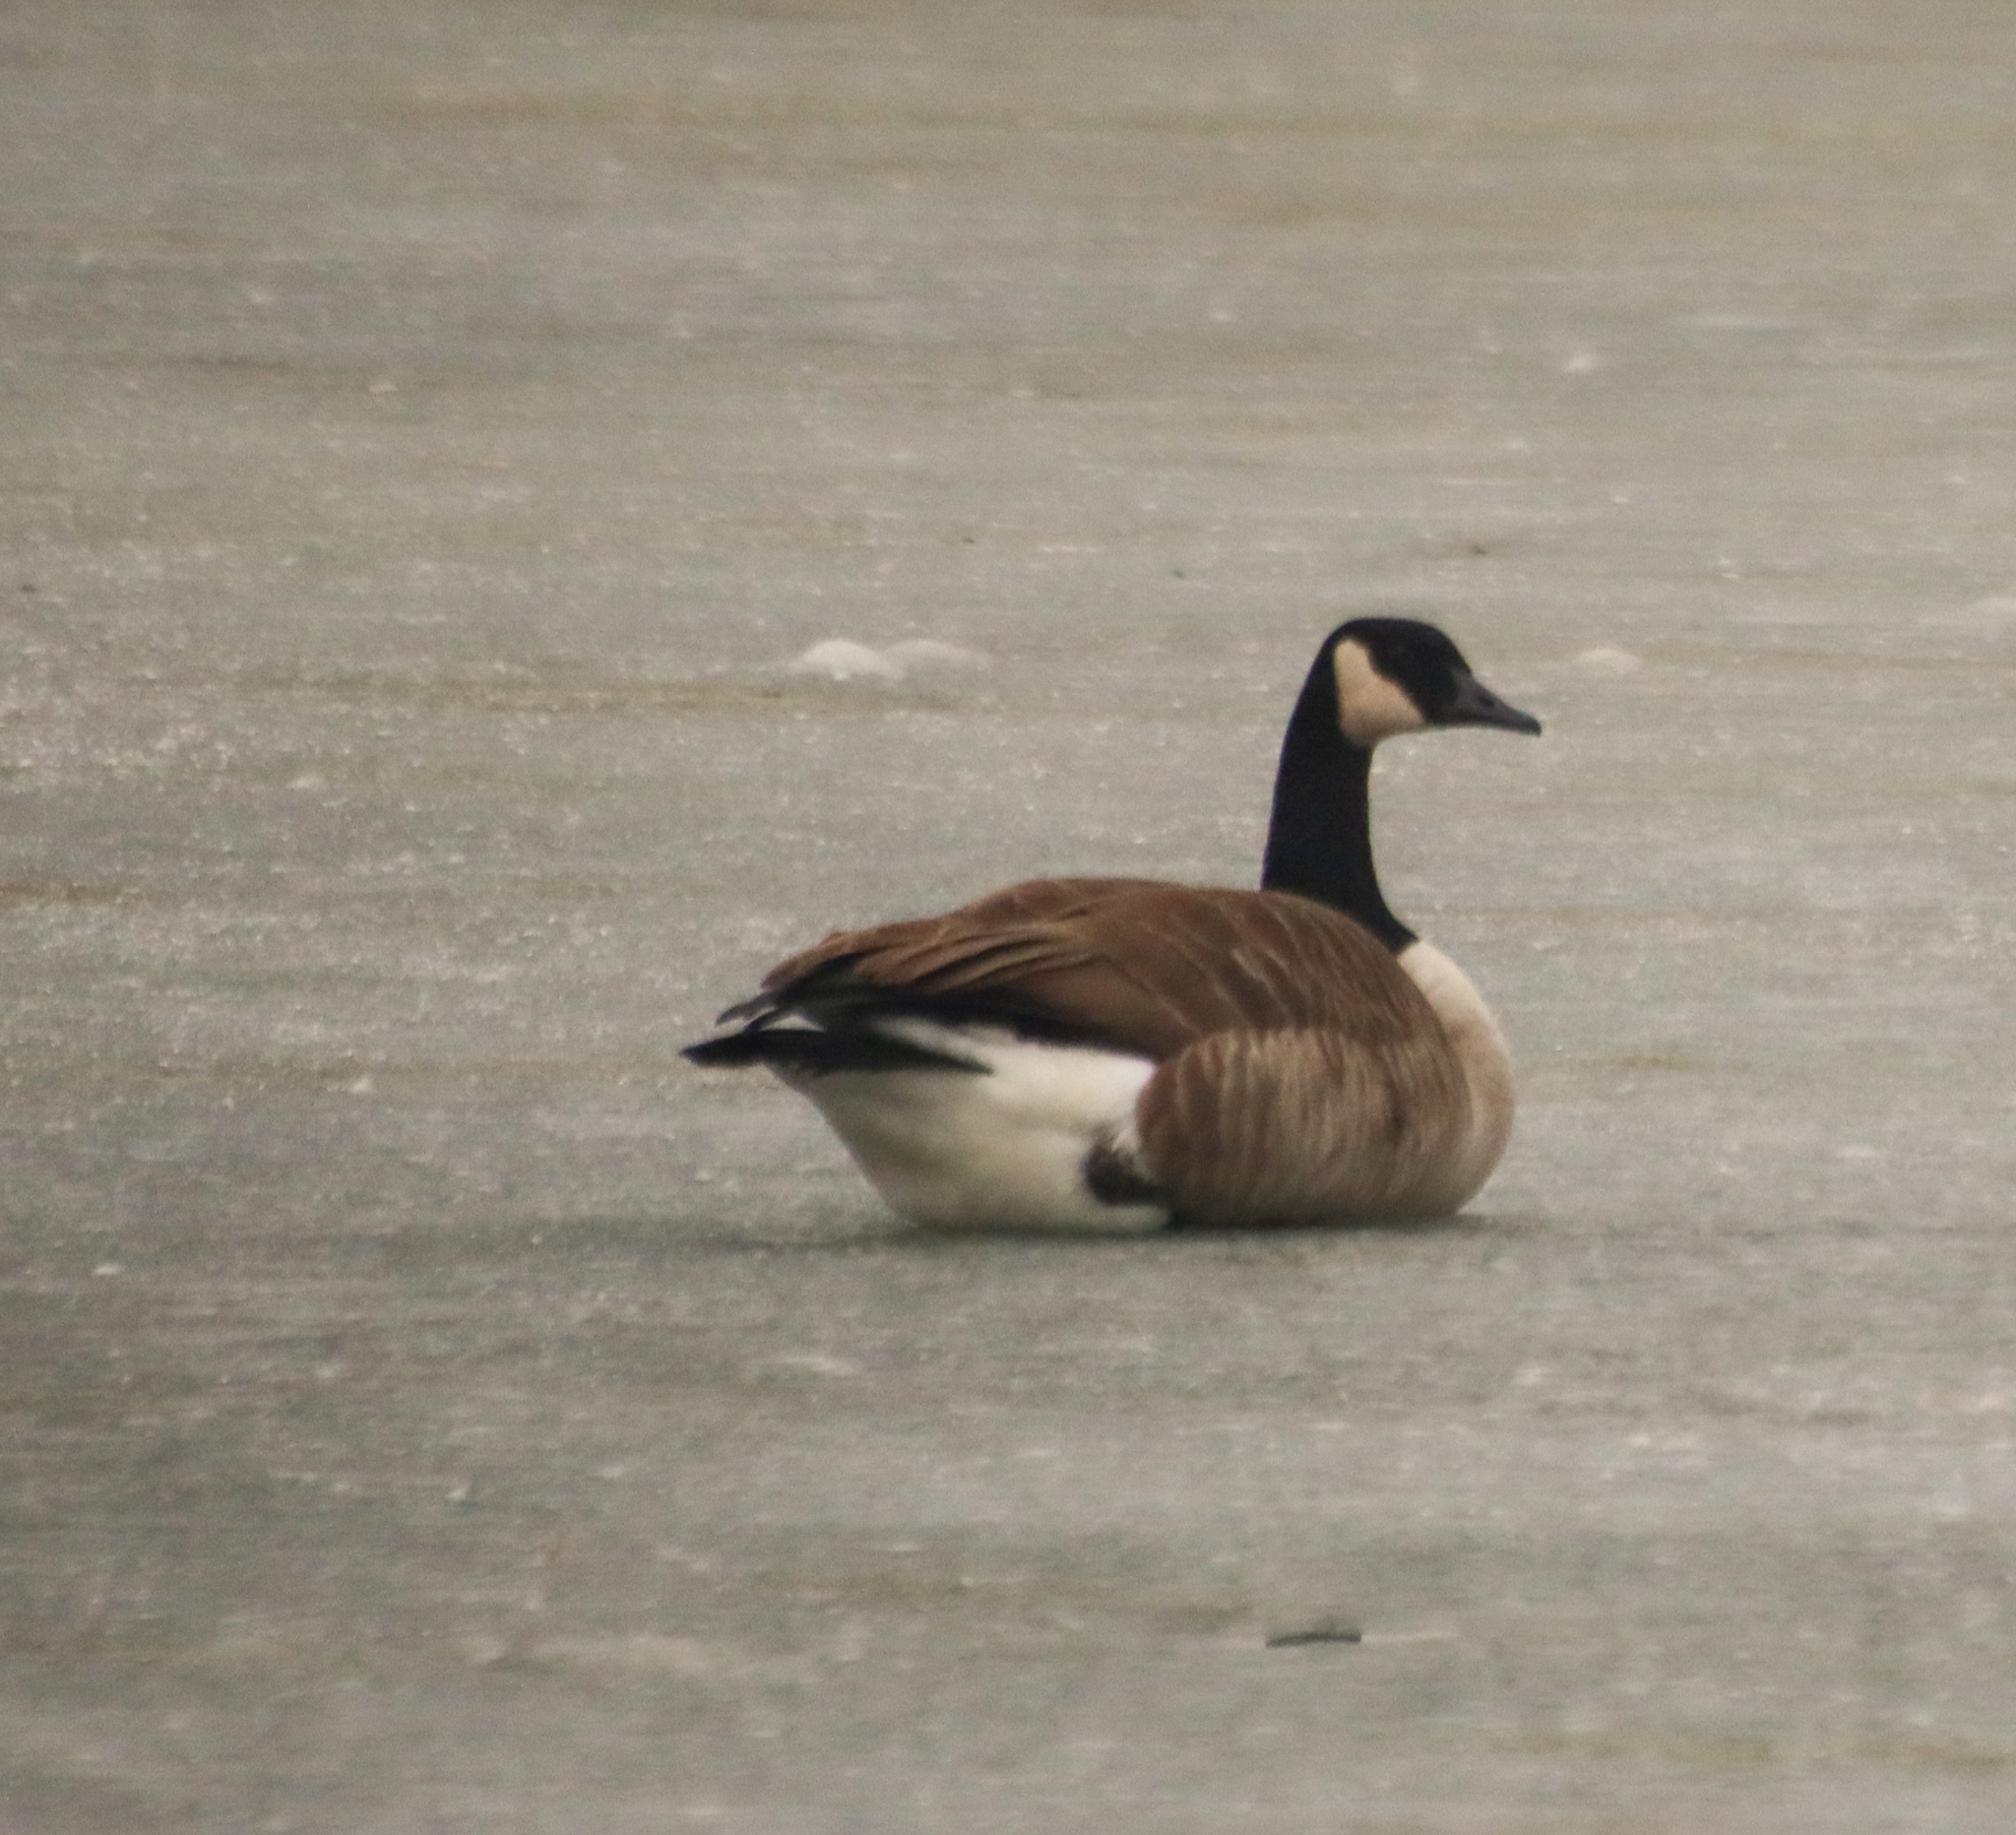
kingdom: Animalia
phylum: Chordata
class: Aves
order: Anseriformes
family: Anatidae
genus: Branta
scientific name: Branta canadensis
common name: Canada goose
